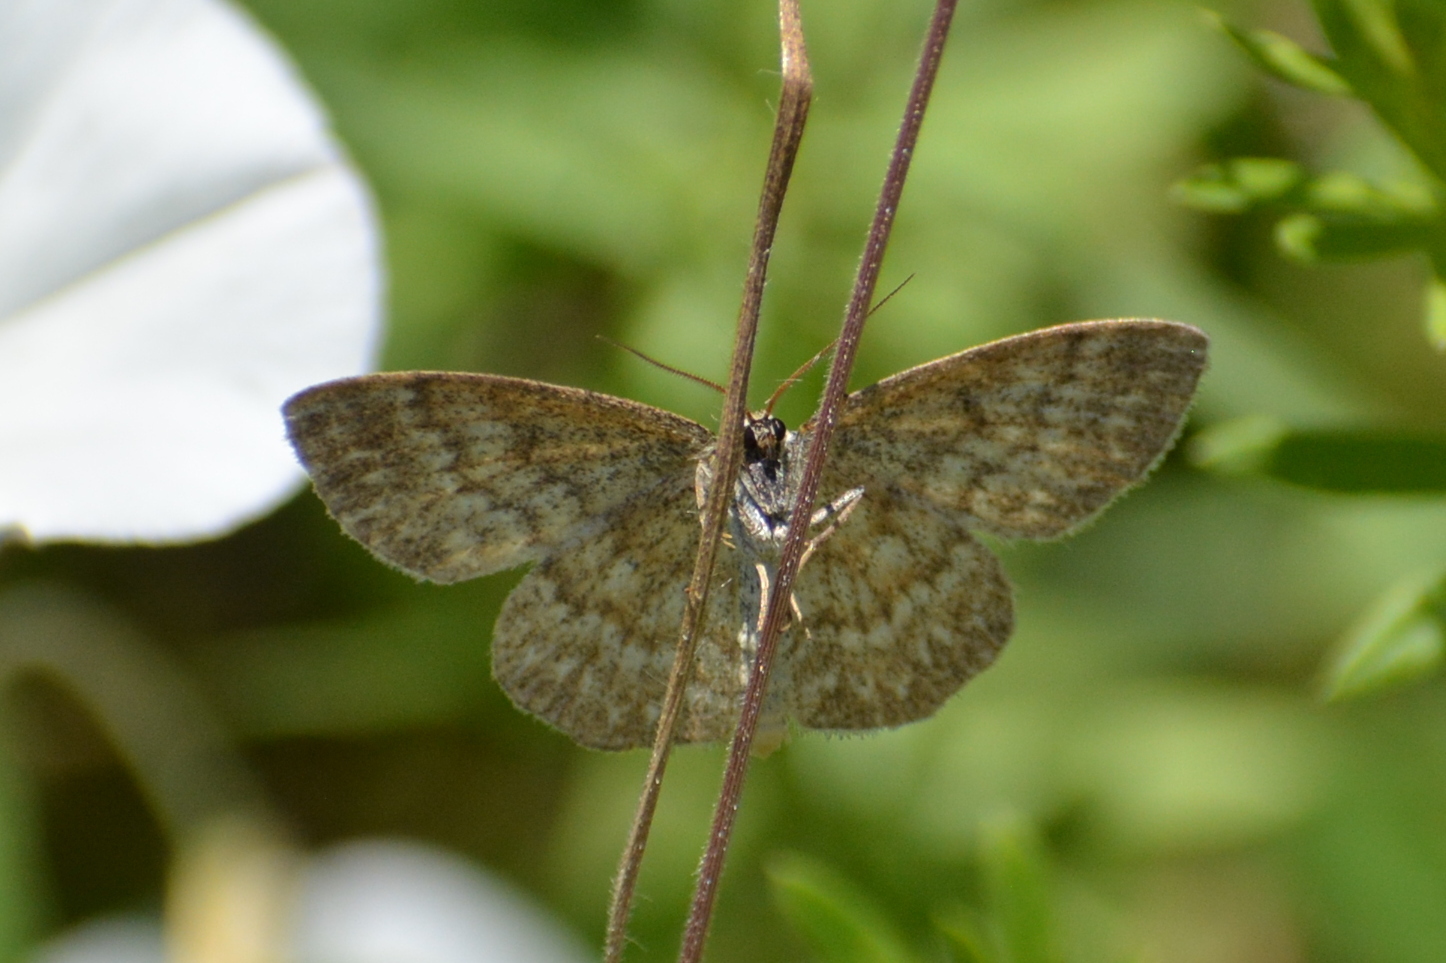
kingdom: Animalia
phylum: Arthropoda
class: Insecta
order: Lepidoptera
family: Geometridae
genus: Scopula
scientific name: Scopula immorata
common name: Lewes wave
